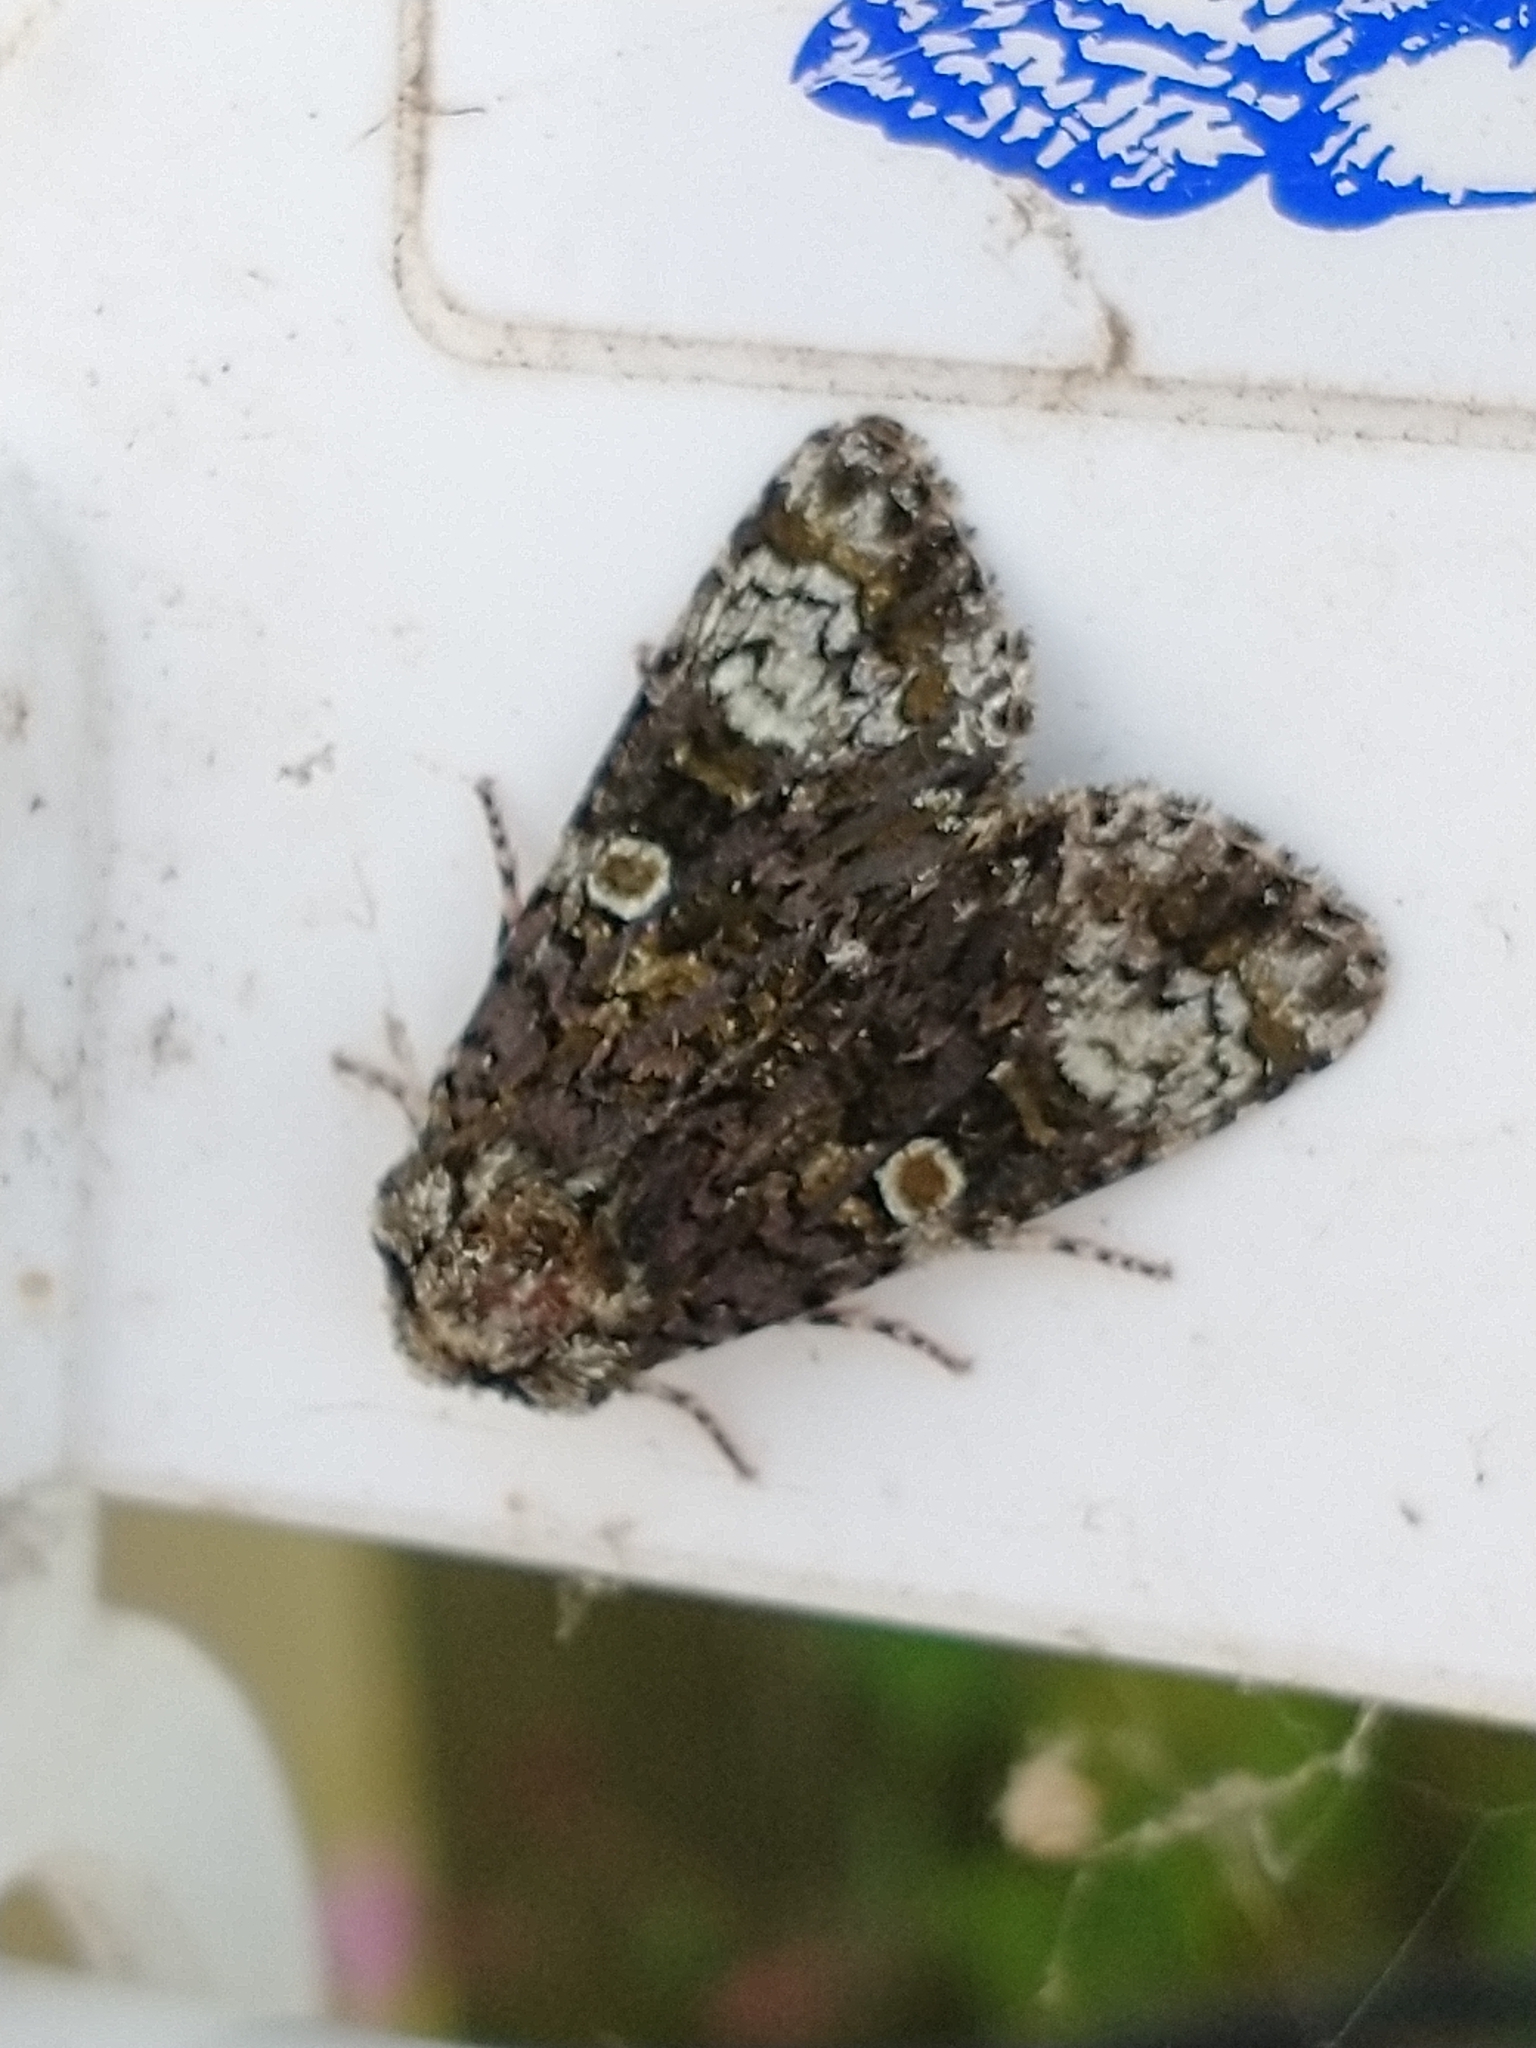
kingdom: Animalia
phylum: Arthropoda
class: Insecta
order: Lepidoptera
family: Noctuidae
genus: Craniophora
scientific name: Craniophora ligustri
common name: Coronet
